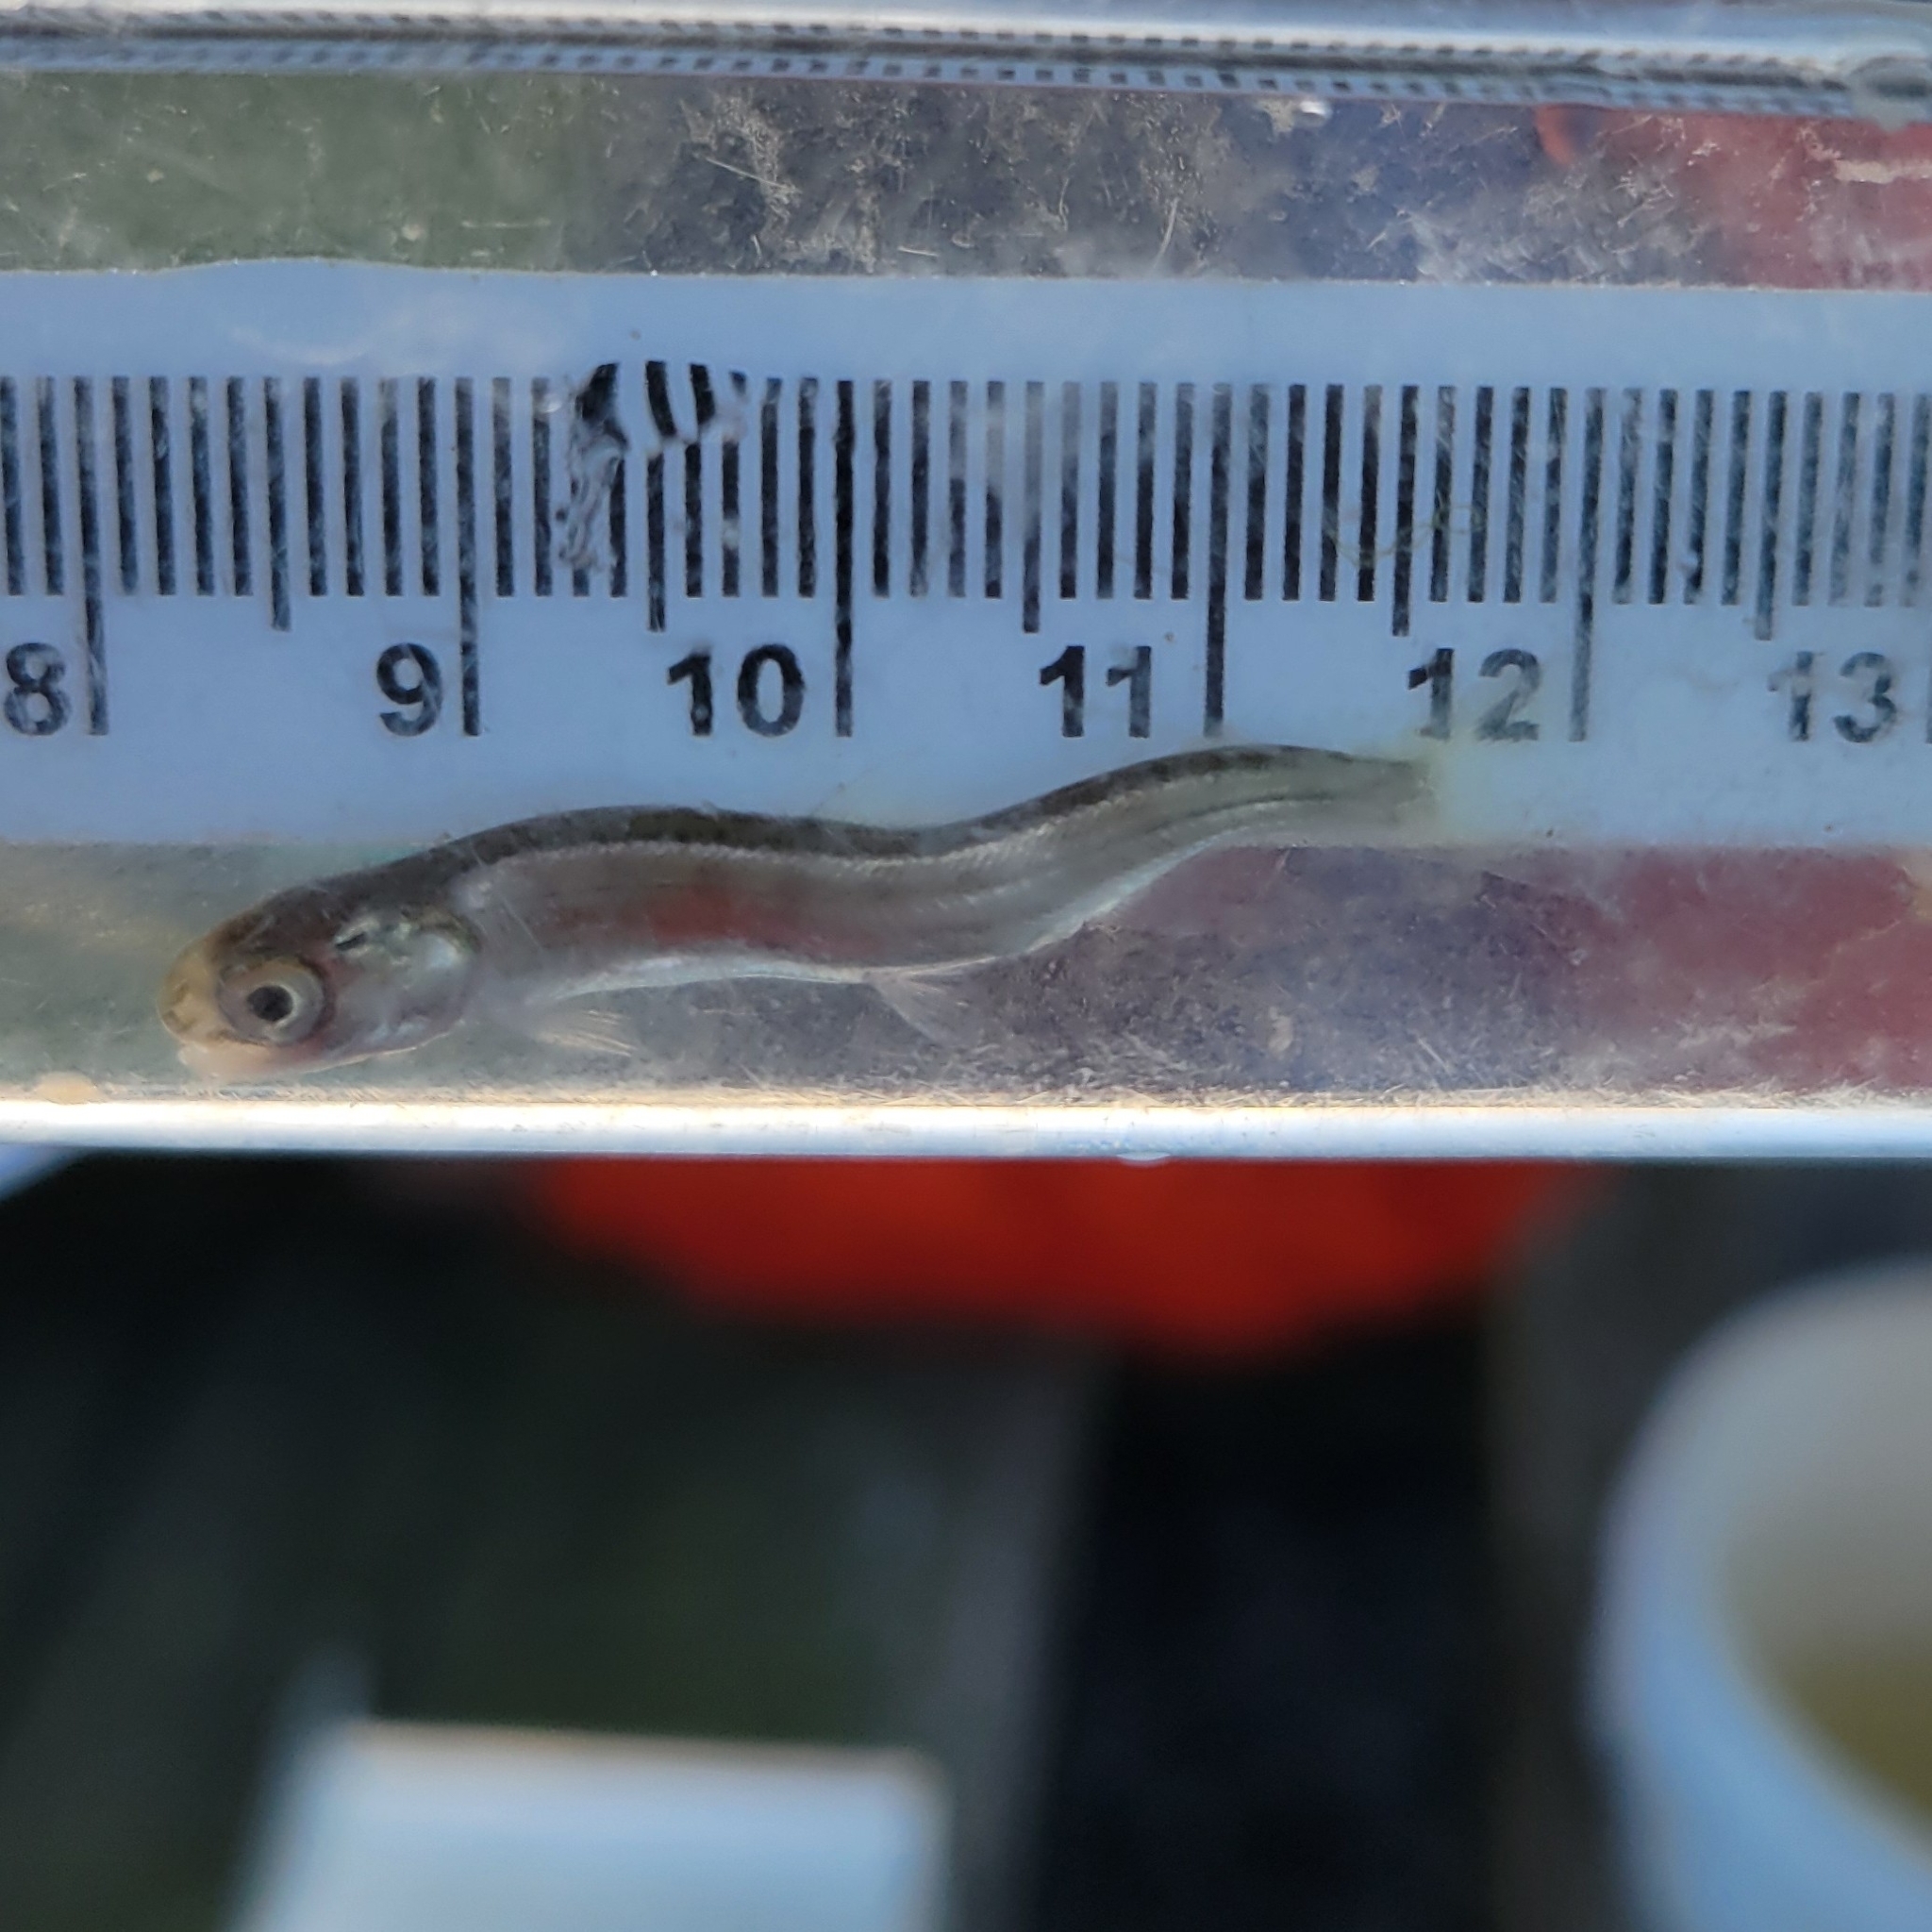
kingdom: Animalia
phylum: Chordata
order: Salmoniformes
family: Salmonidae
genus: Oncorhynchus
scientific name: Oncorhynchus gorbuscha
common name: Humpback salmon
